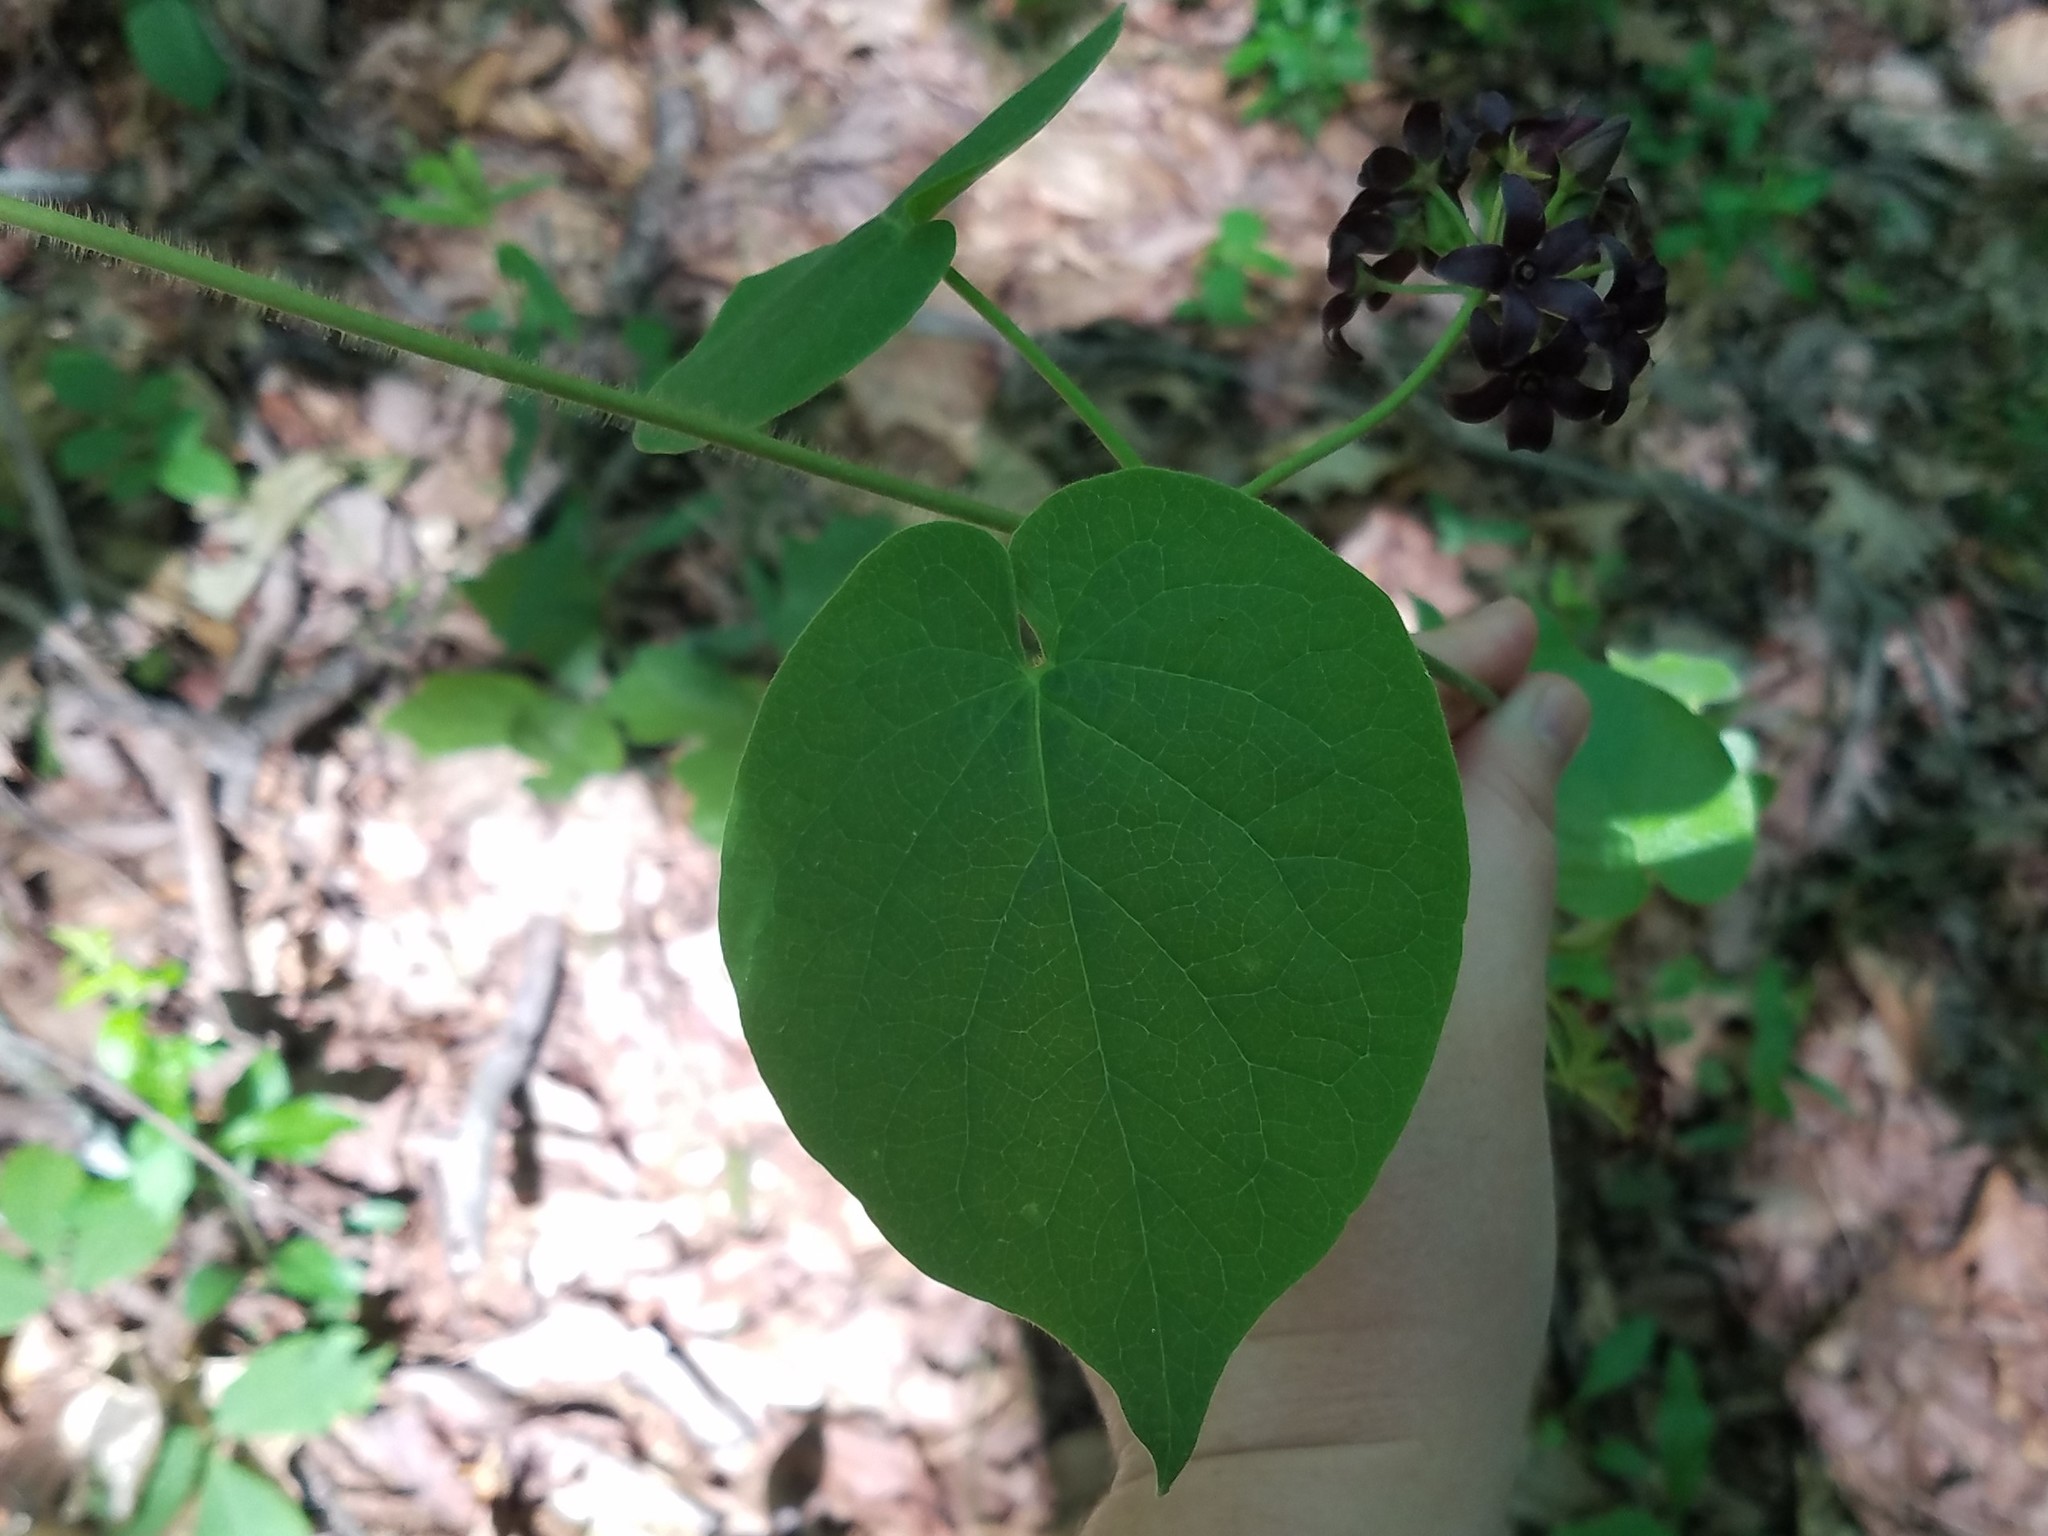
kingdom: Plantae
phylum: Tracheophyta
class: Magnoliopsida
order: Gentianales
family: Apocynaceae
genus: Matelea
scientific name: Matelea carolinensis
